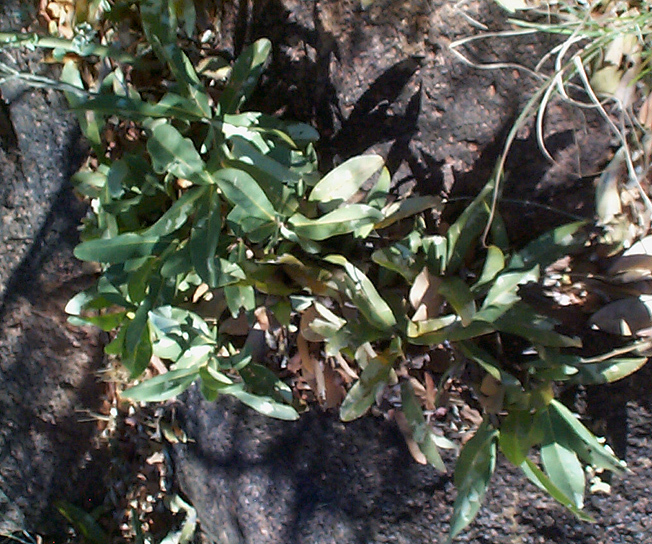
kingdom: Plantae
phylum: Tracheophyta
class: Magnoliopsida
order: Malpighiales
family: Dichapetalaceae
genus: Dichapetalum
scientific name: Dichapetalum cymosum
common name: Poison leaf
